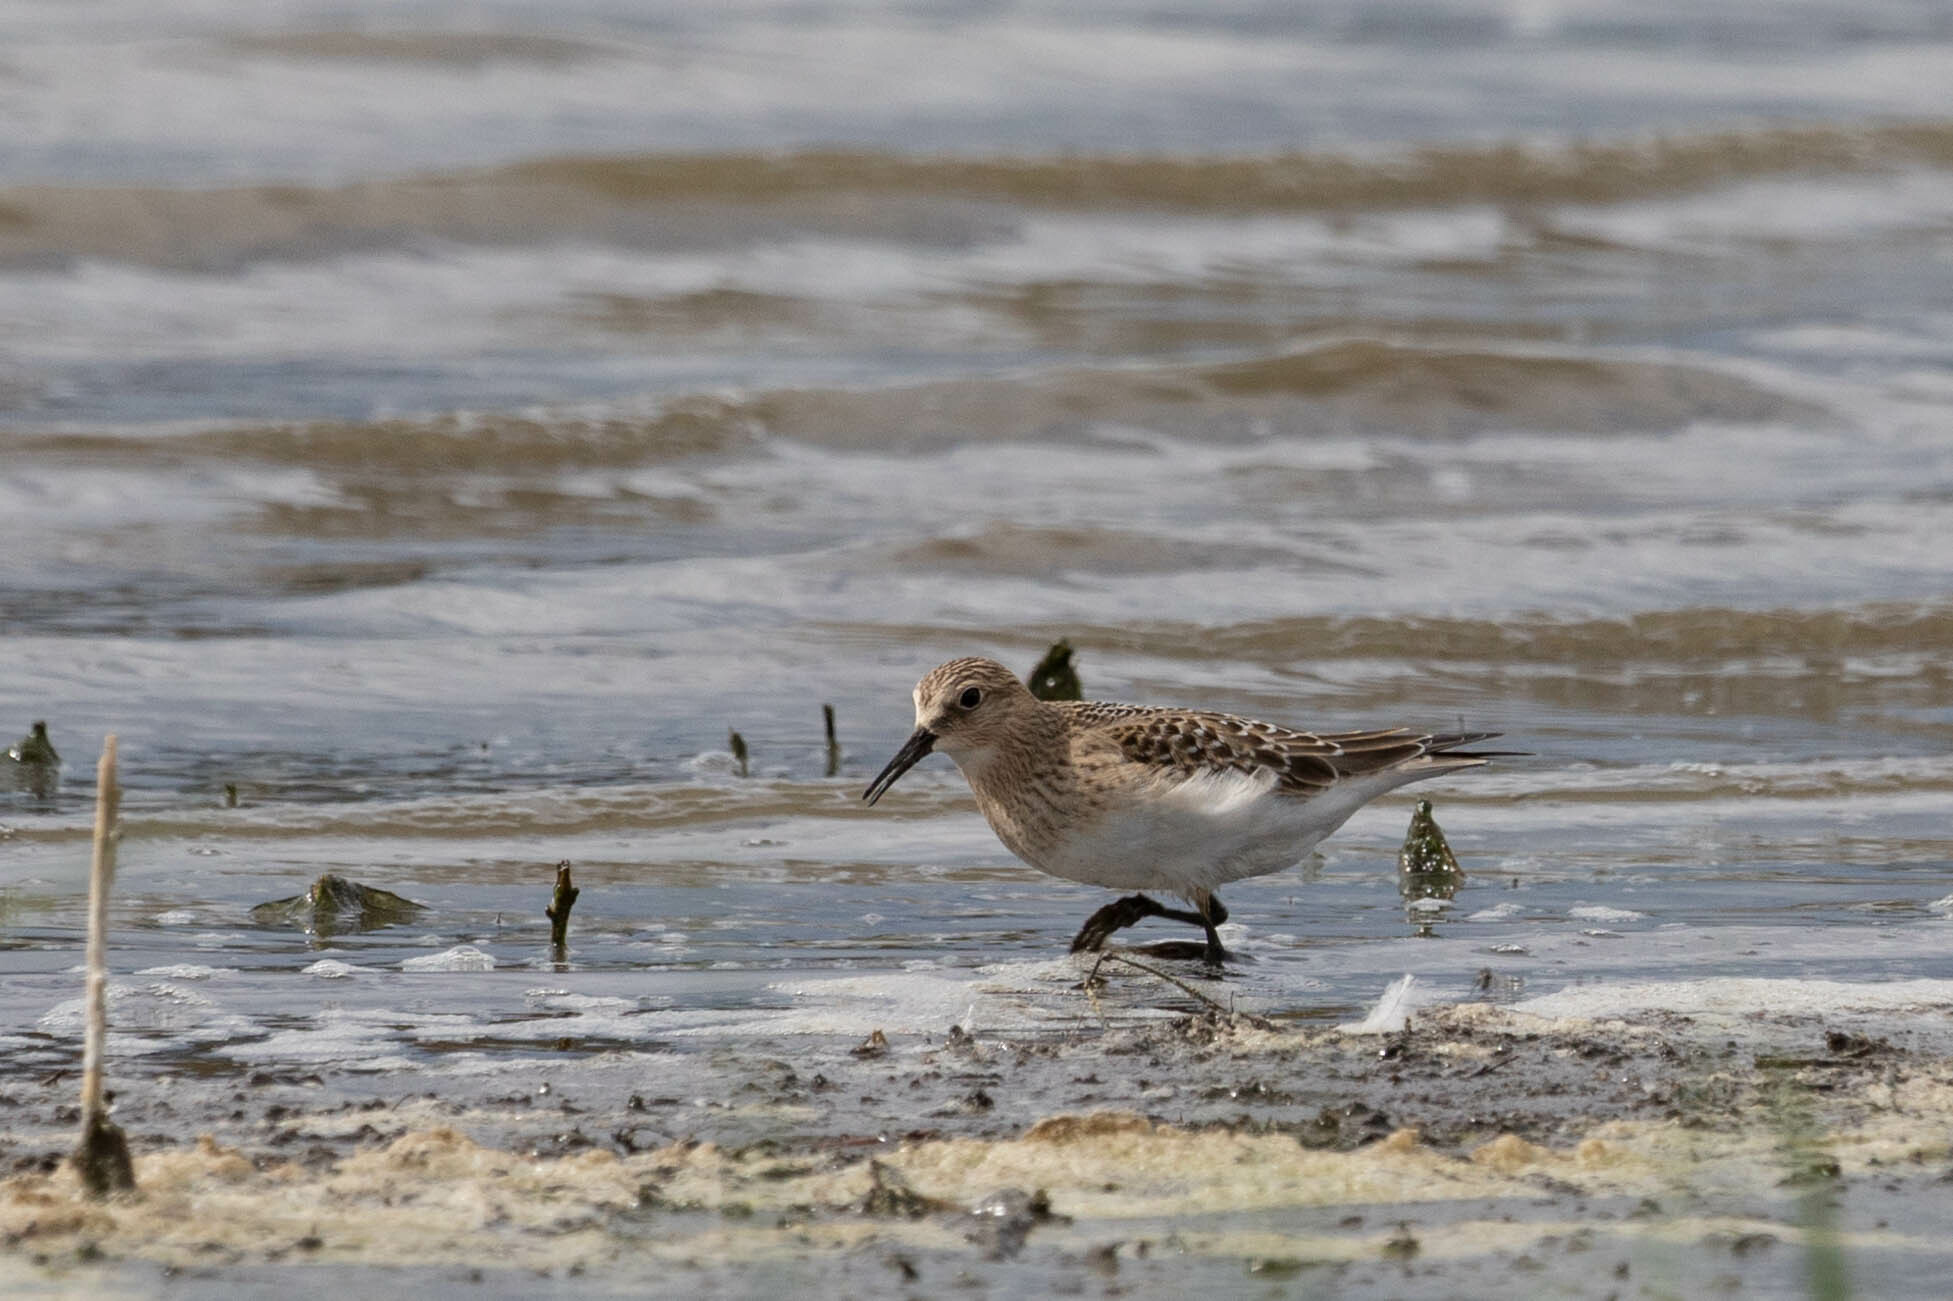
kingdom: Animalia
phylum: Chordata
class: Aves
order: Charadriiformes
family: Scolopacidae
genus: Calidris
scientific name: Calidris bairdii
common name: Baird's sandpiper
